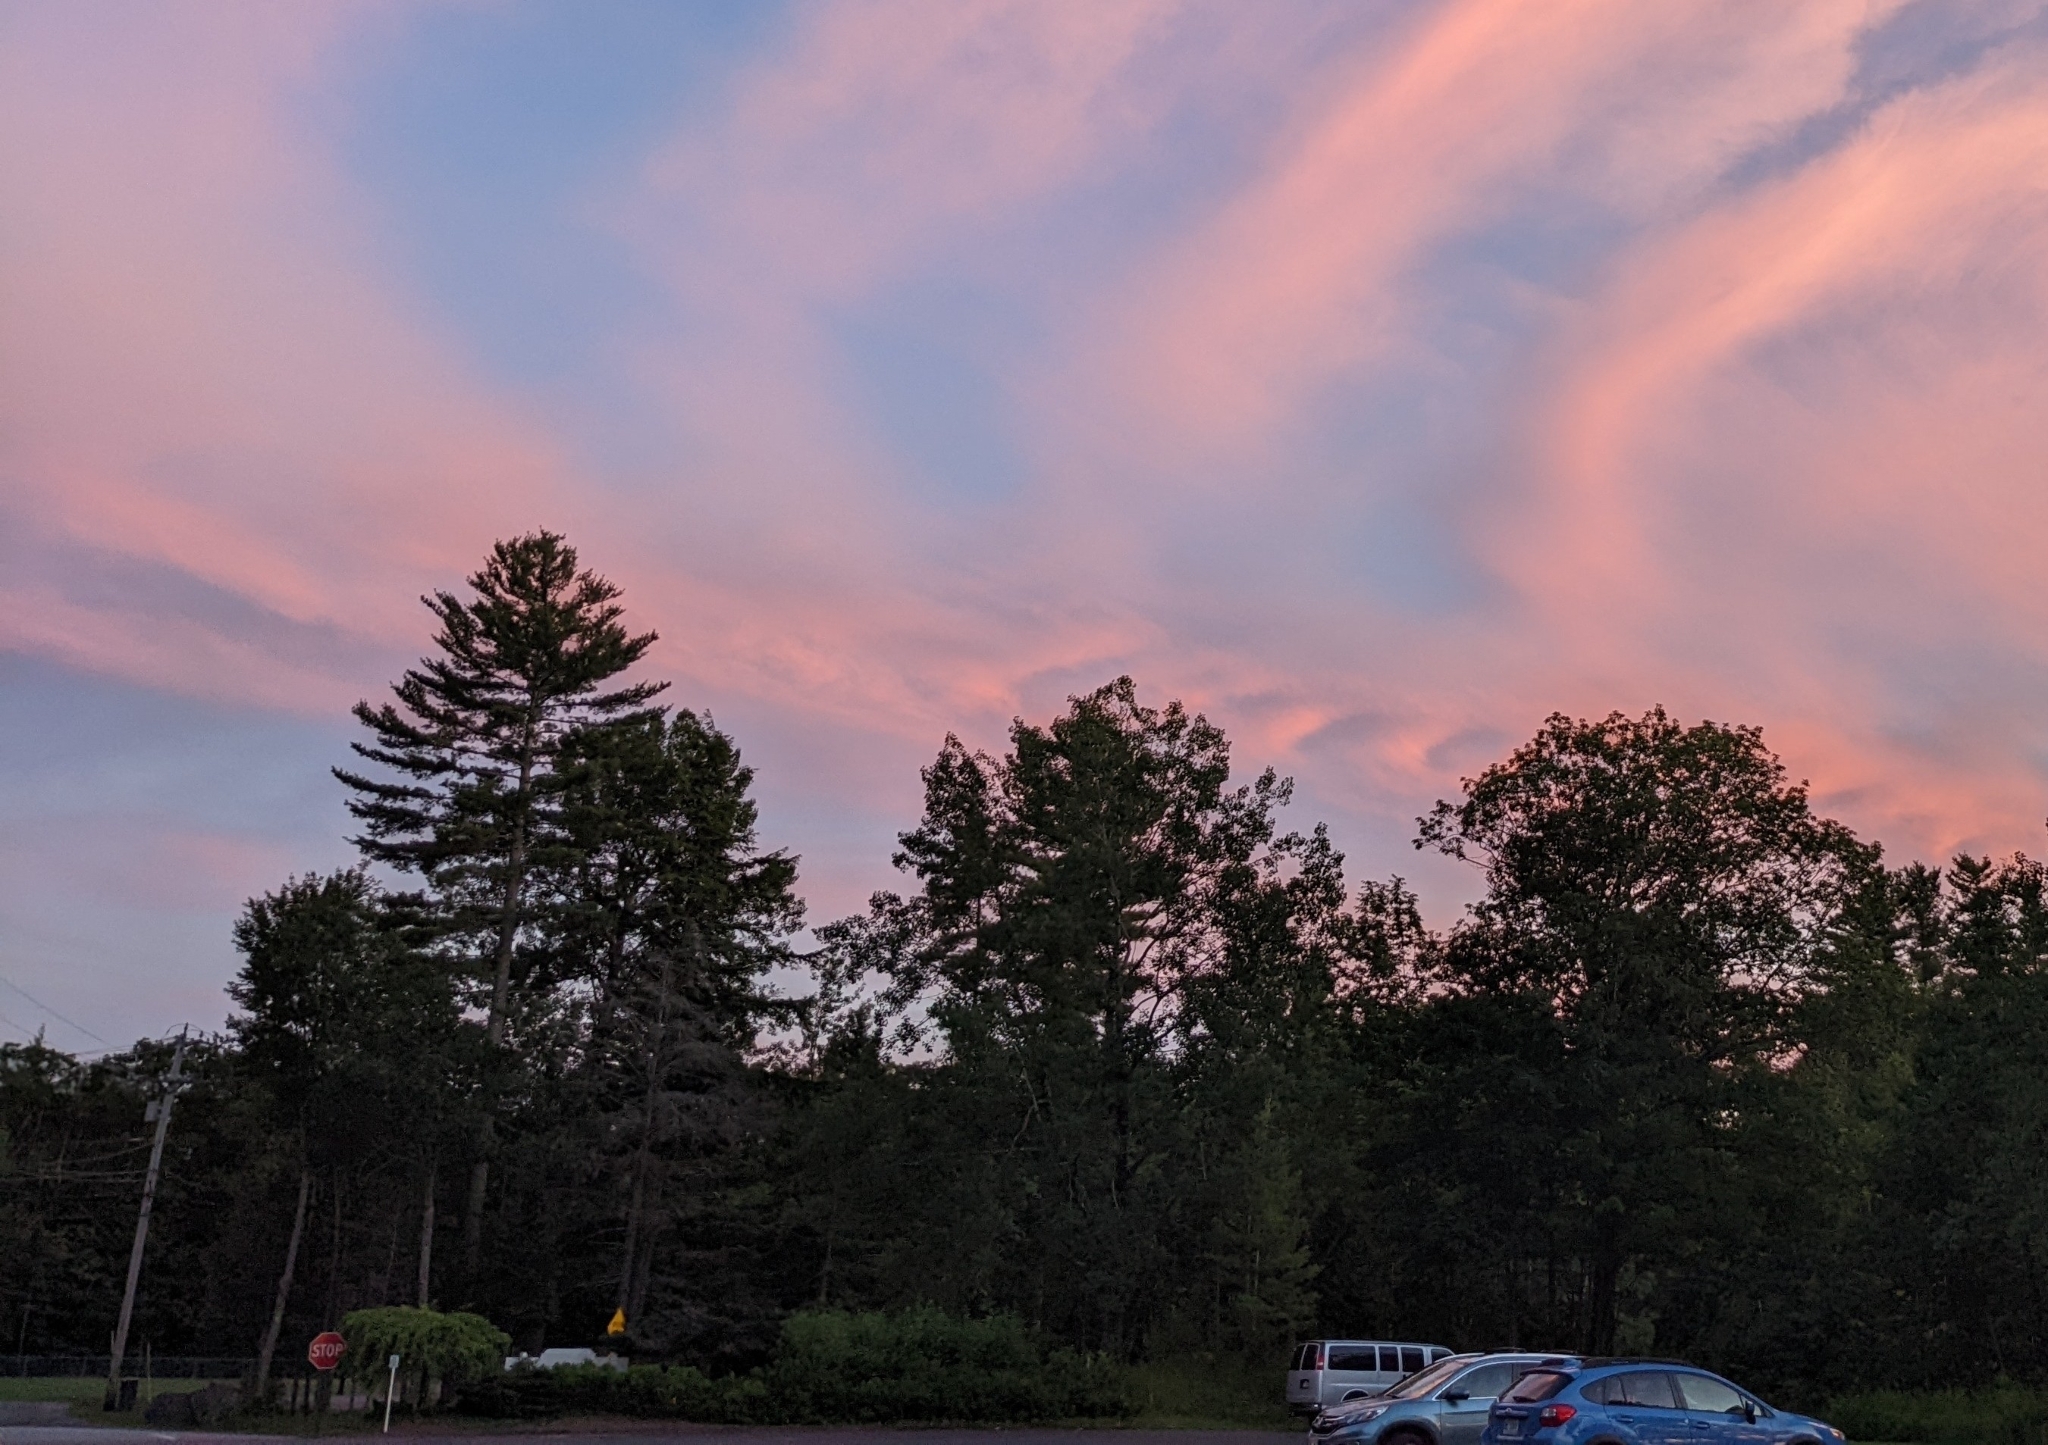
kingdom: Plantae
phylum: Tracheophyta
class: Pinopsida
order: Pinales
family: Pinaceae
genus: Pinus
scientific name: Pinus strobus
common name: Weymouth pine
